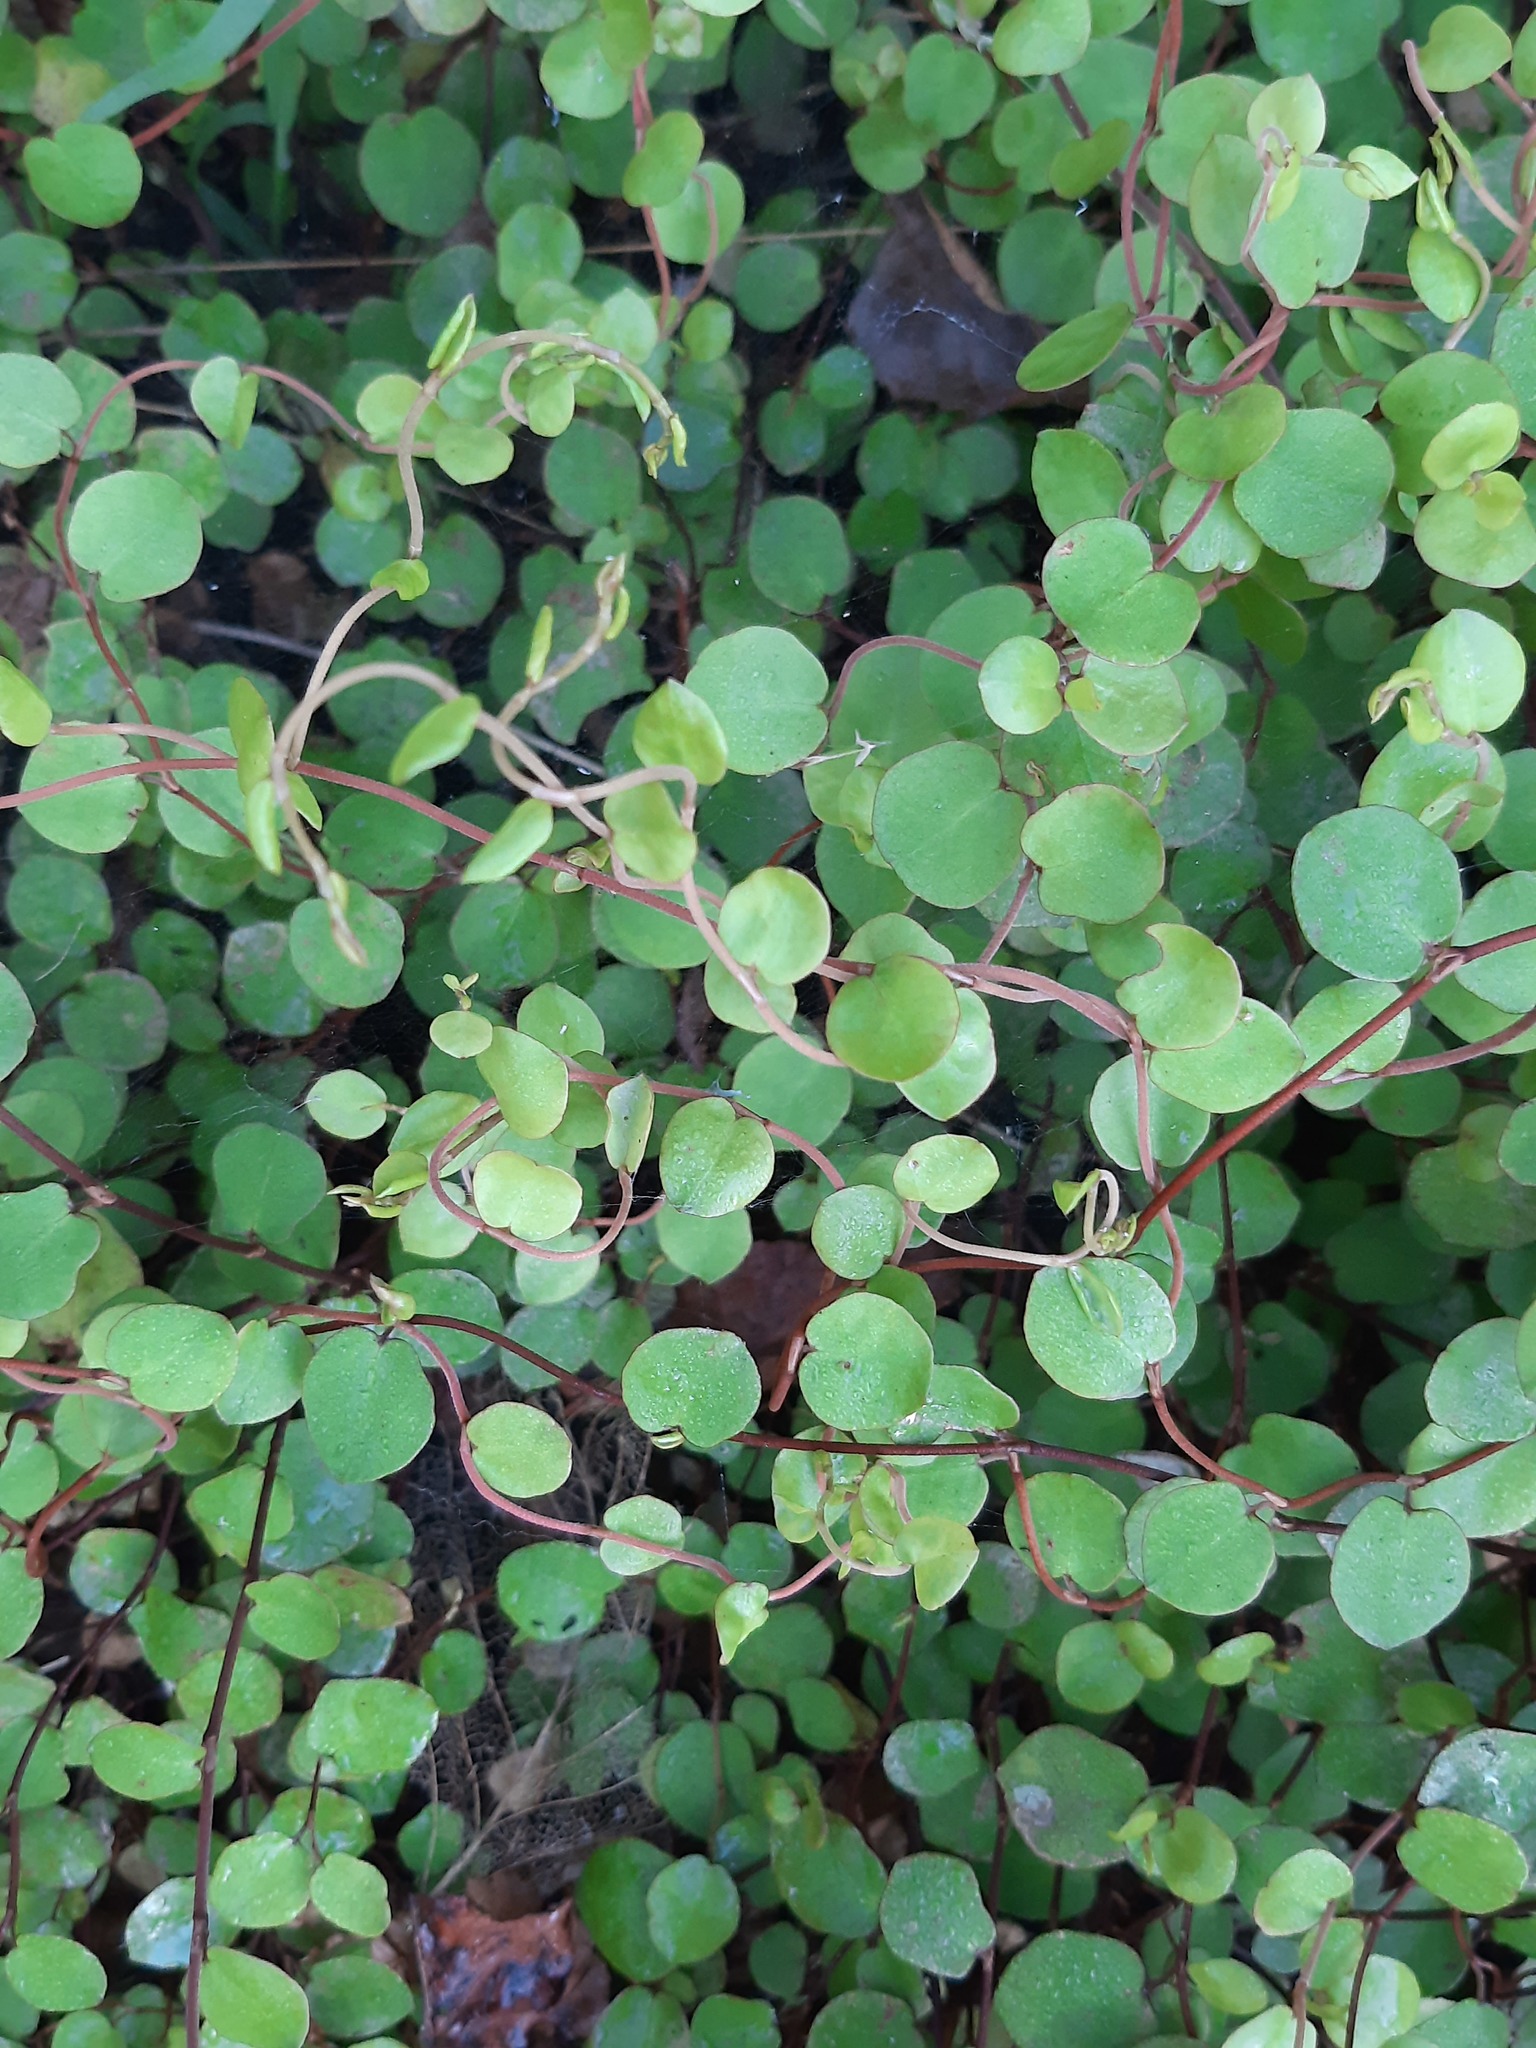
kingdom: Plantae
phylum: Tracheophyta
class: Magnoliopsida
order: Caryophyllales
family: Polygonaceae
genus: Muehlenbeckia
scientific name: Muehlenbeckia complexa
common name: Wireplant
